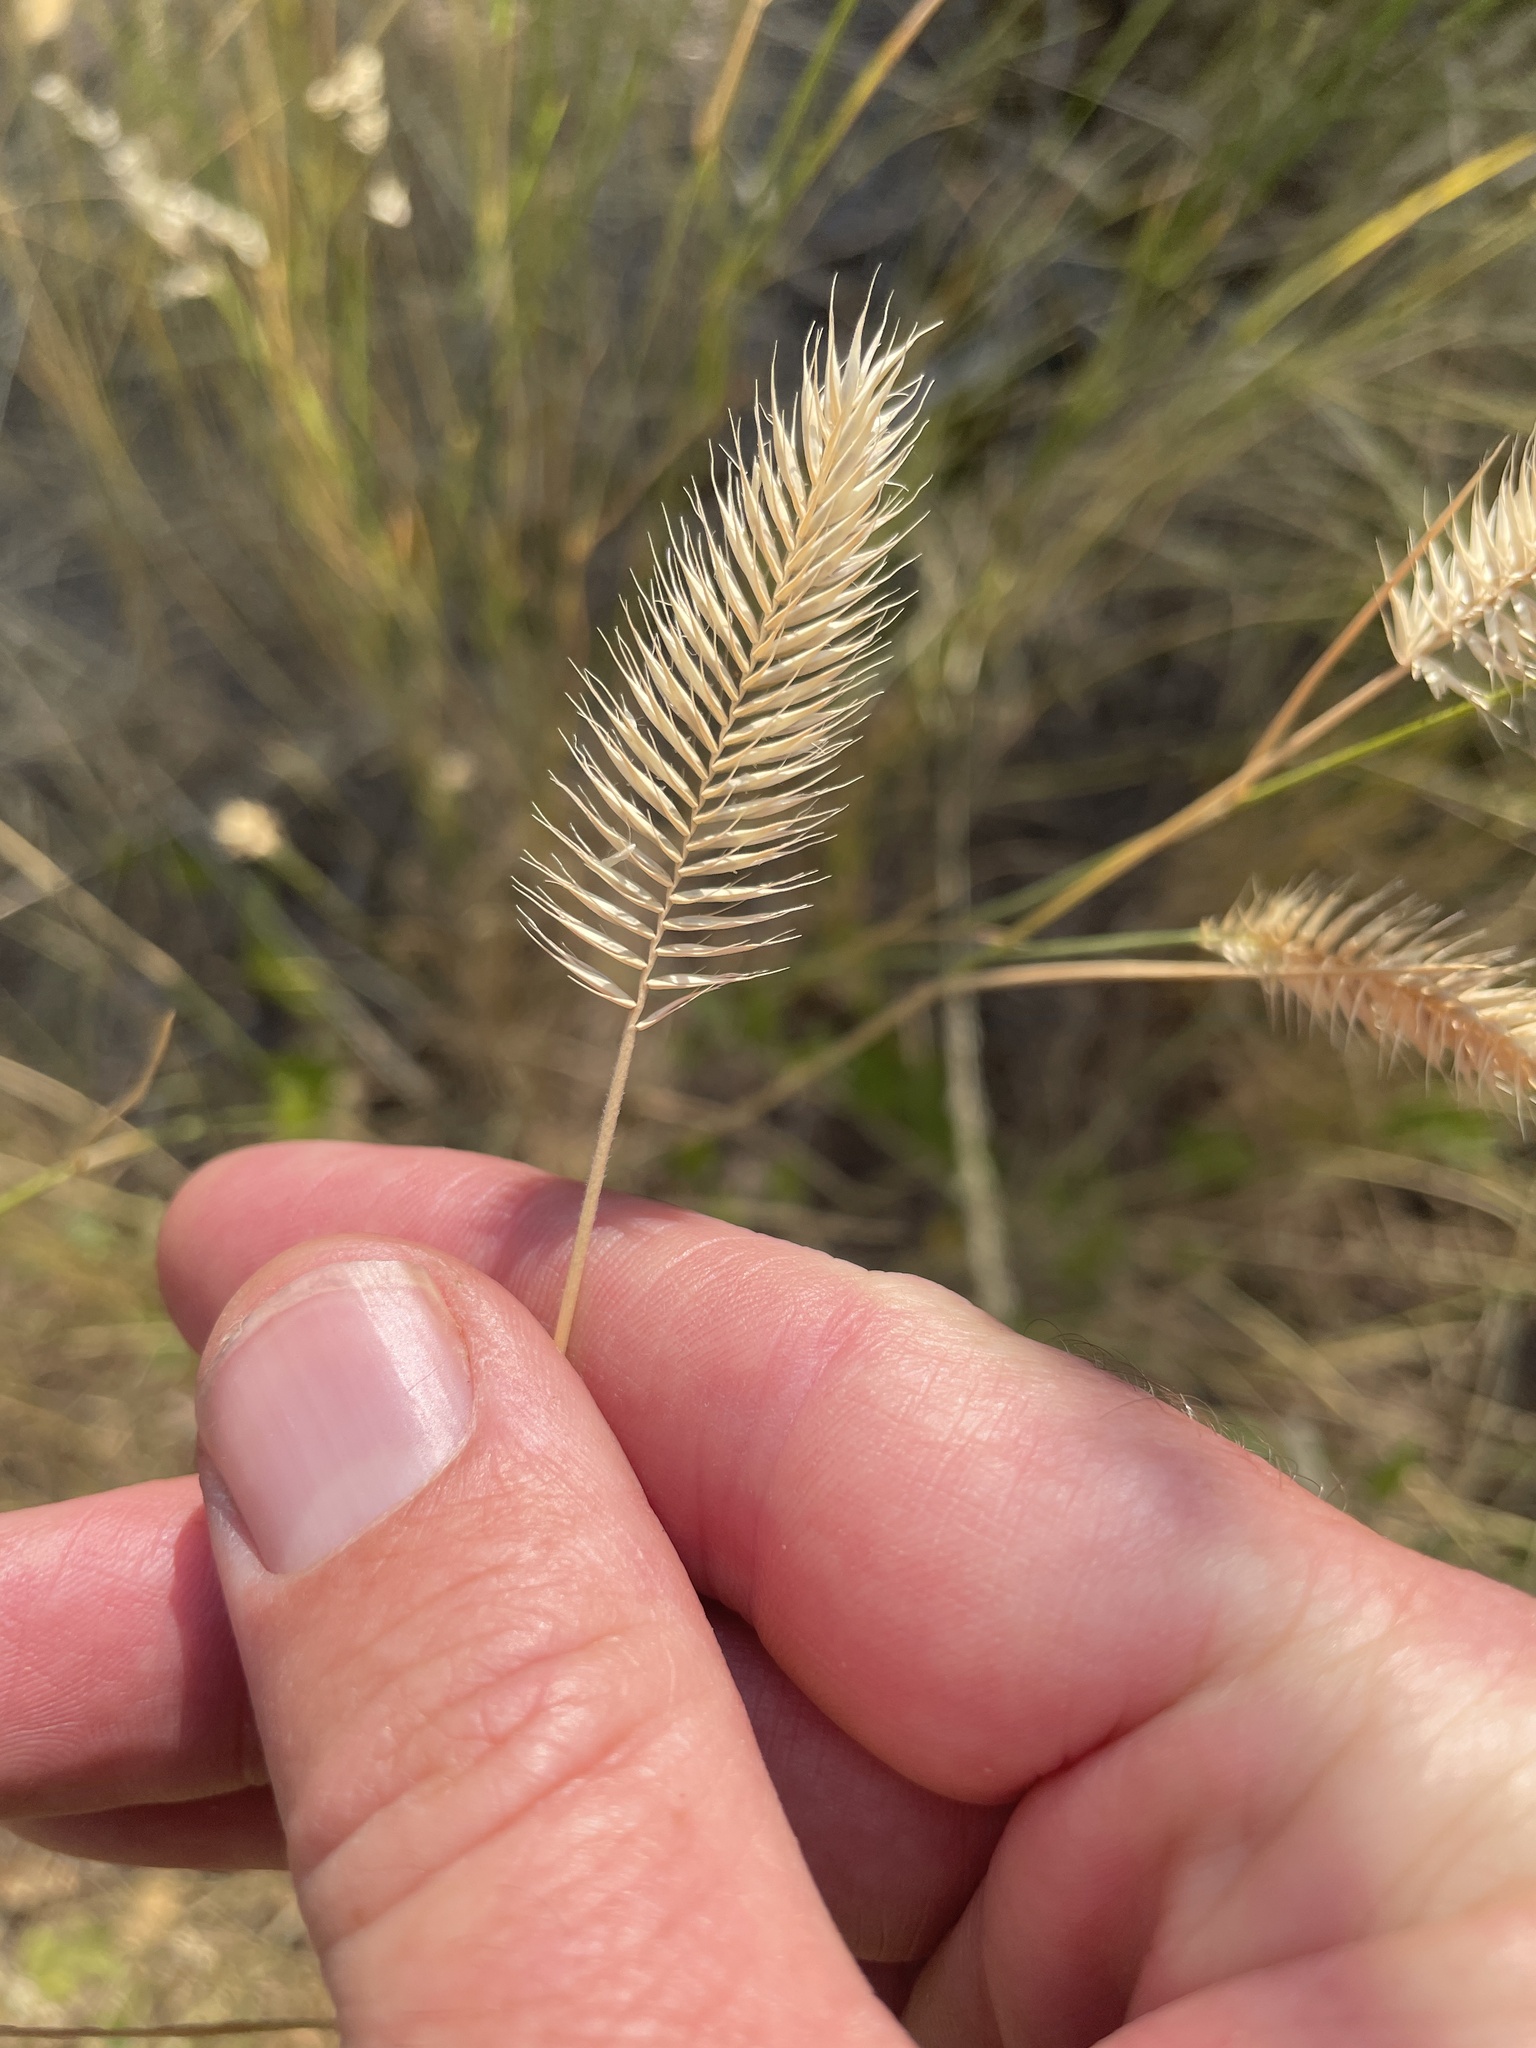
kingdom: Plantae
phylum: Tracheophyta
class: Liliopsida
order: Poales
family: Poaceae
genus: Agropyron
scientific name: Agropyron cristatum
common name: Crested wheatgrass
